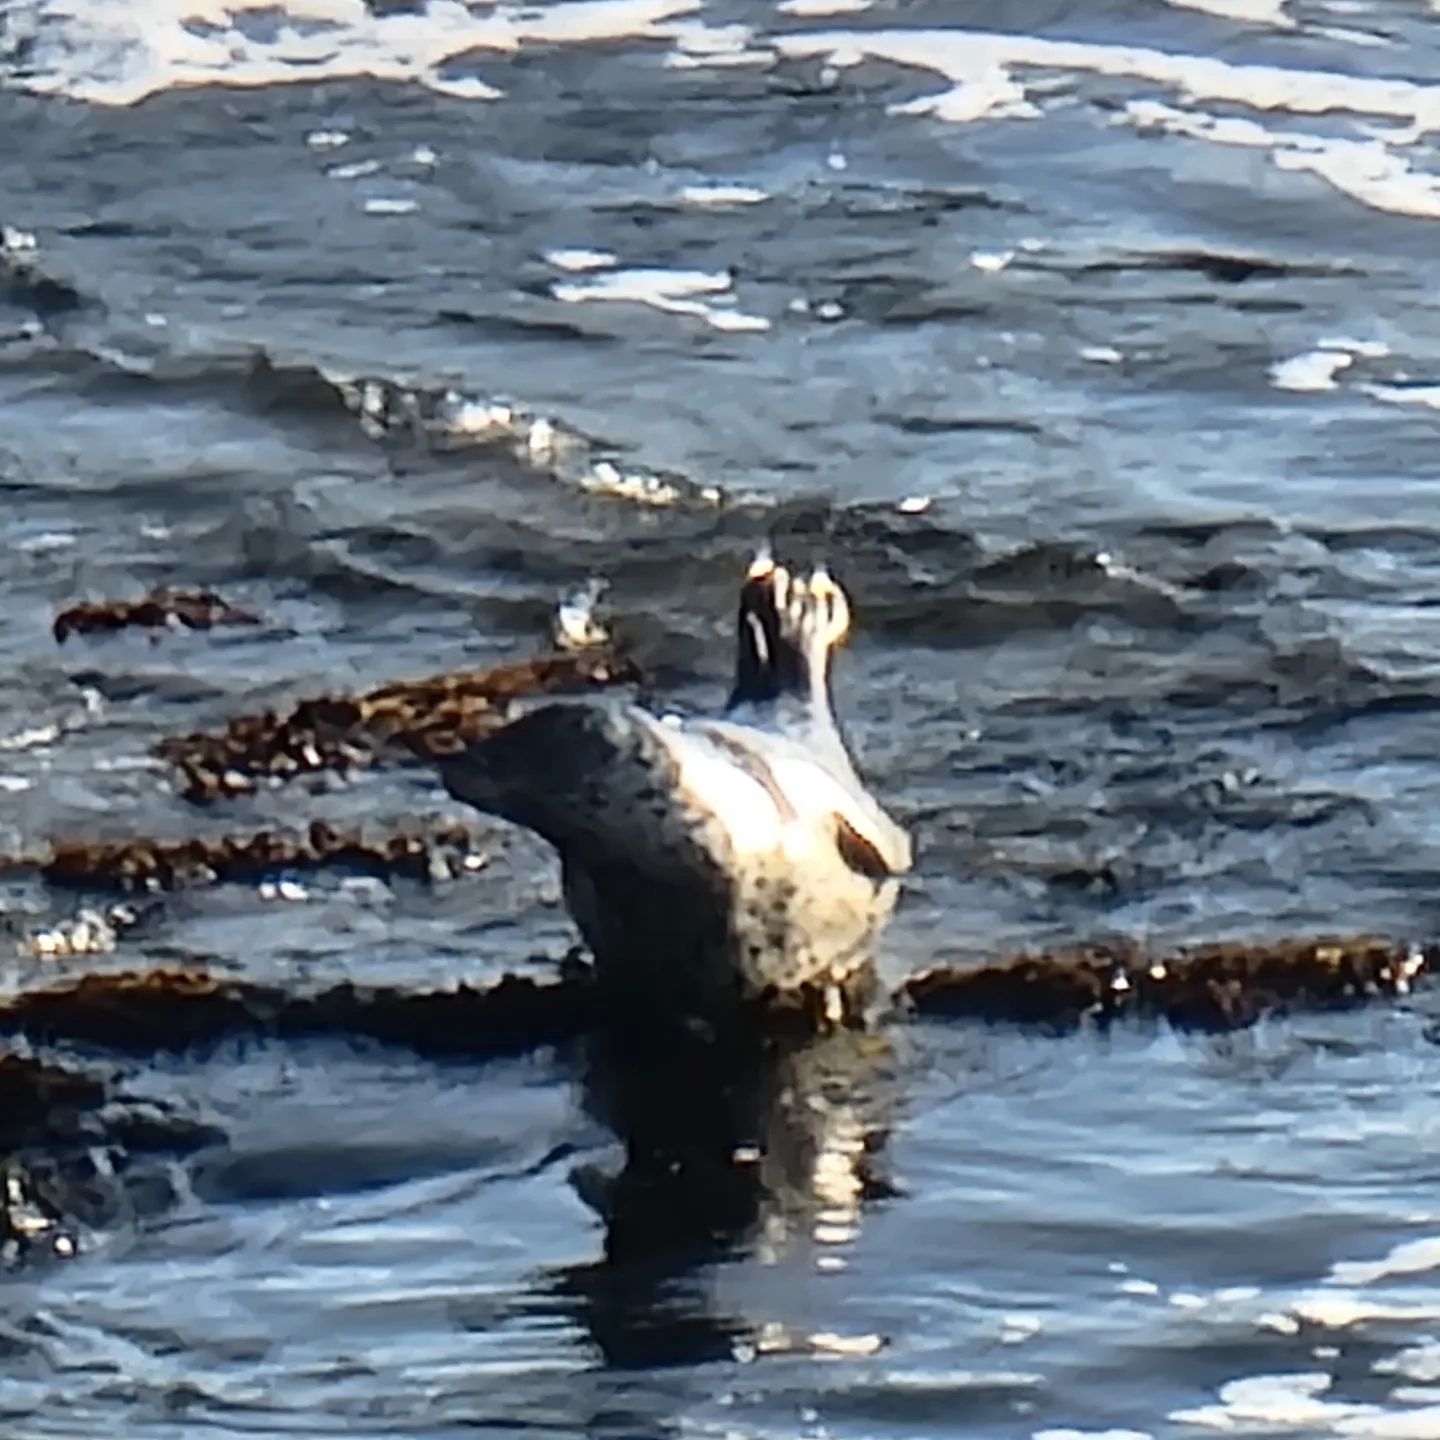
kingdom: Animalia
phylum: Chordata
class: Mammalia
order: Carnivora
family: Phocidae
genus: Phoca
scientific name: Phoca vitulina
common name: Harbor seal
